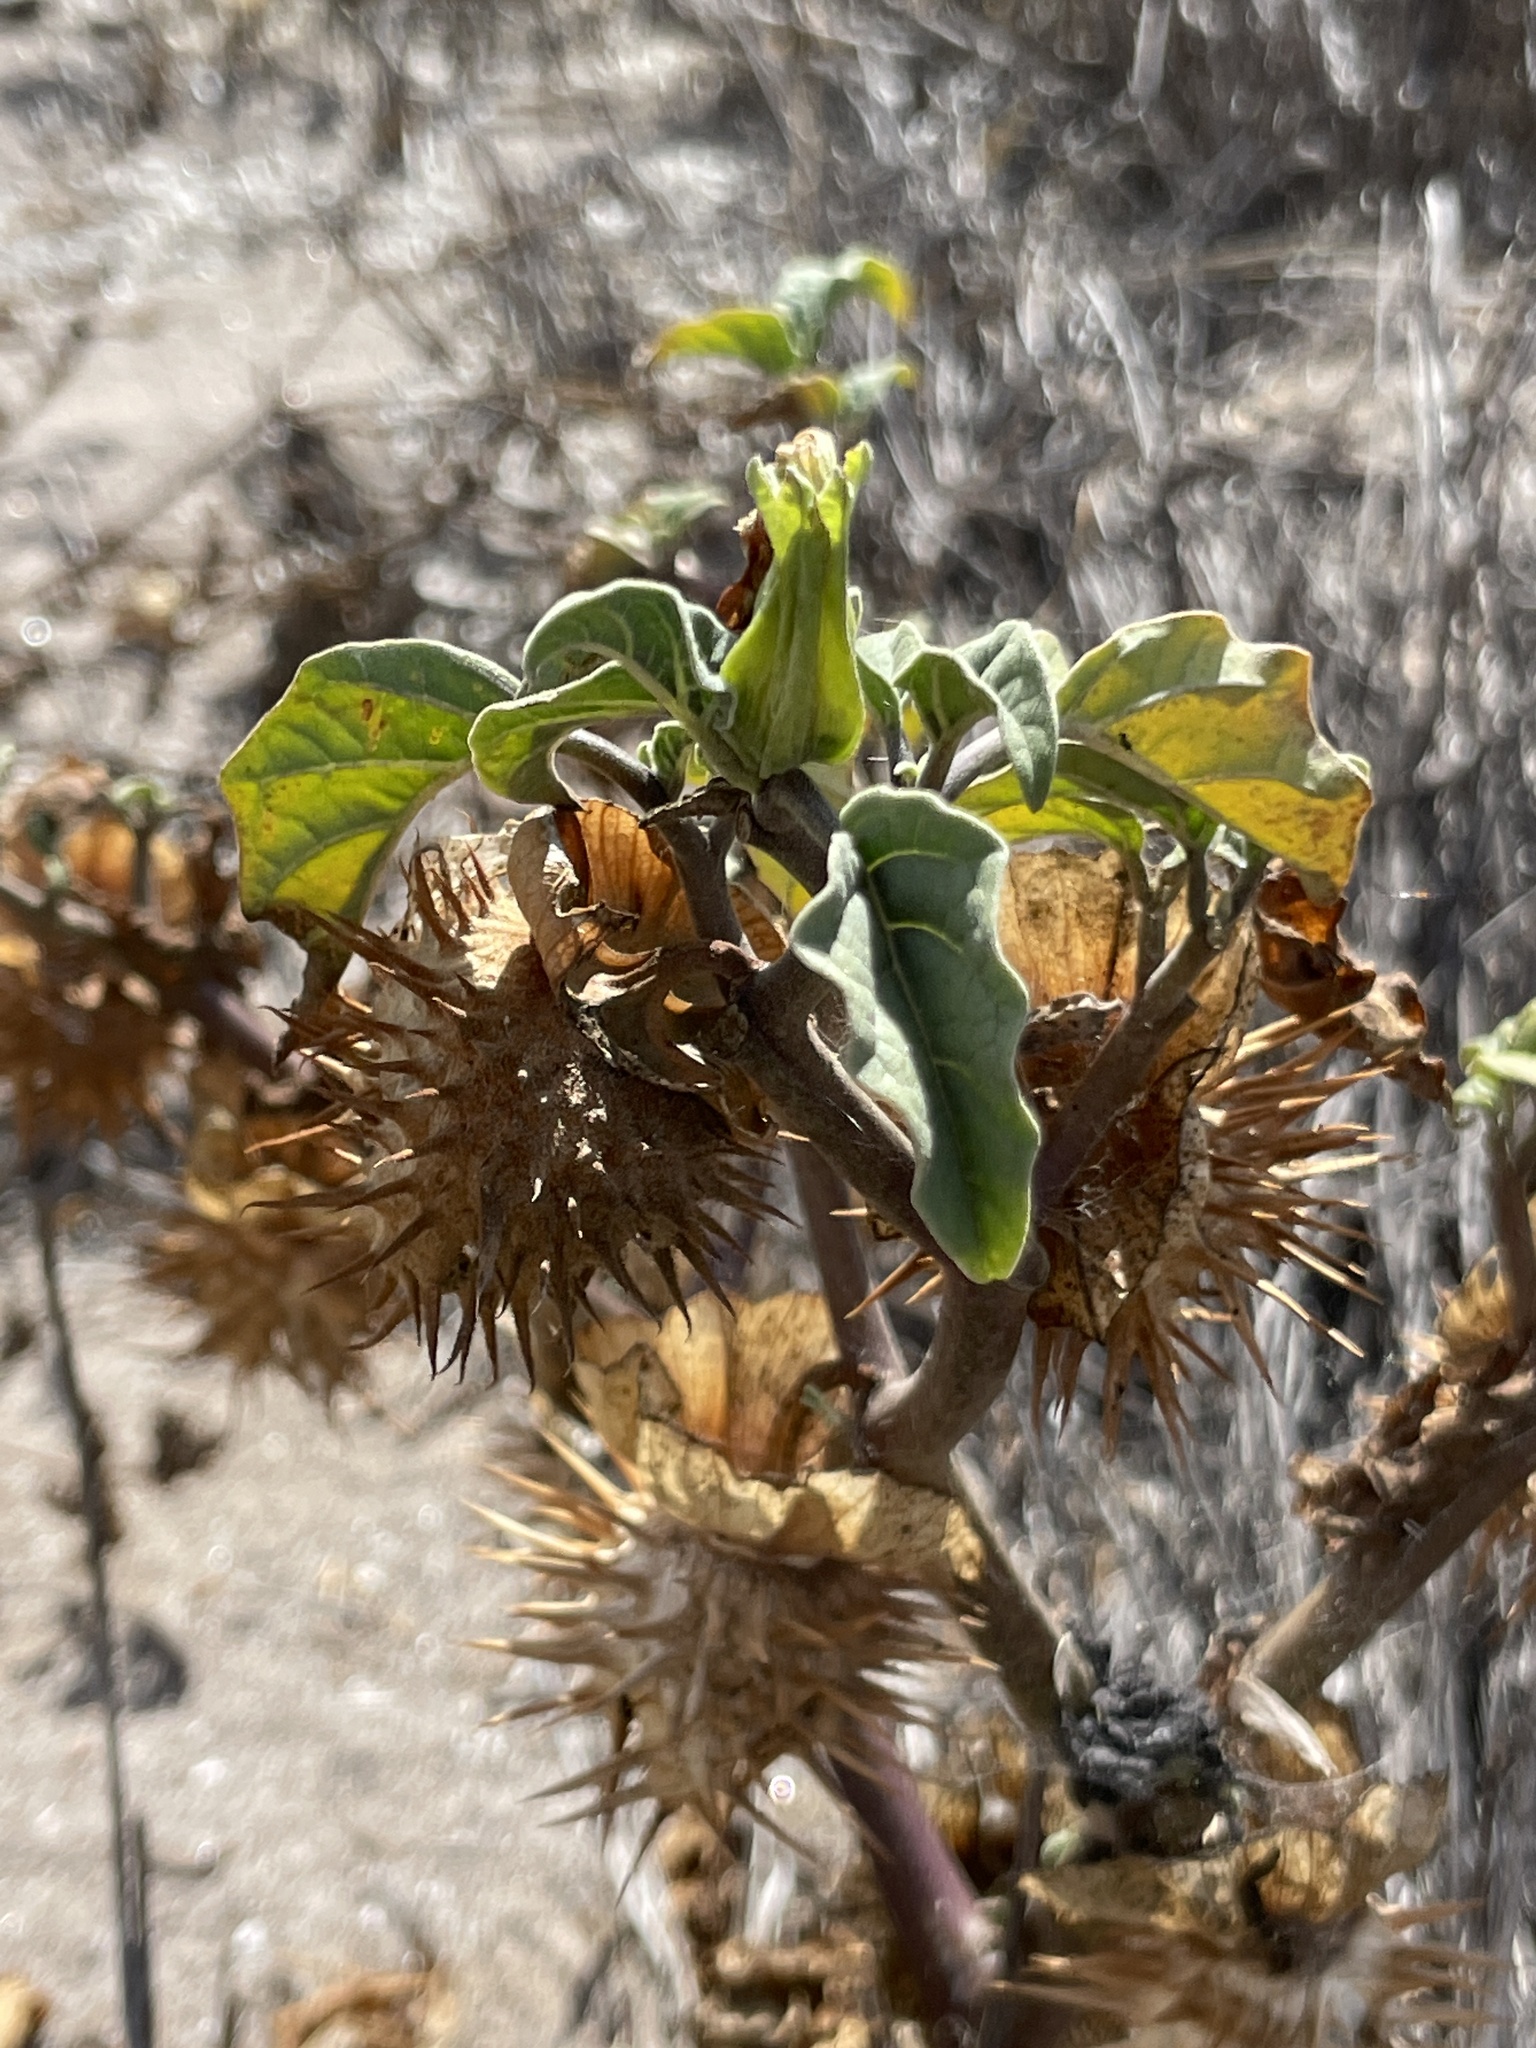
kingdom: Plantae
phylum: Tracheophyta
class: Magnoliopsida
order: Solanales
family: Solanaceae
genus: Datura
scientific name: Datura discolor
